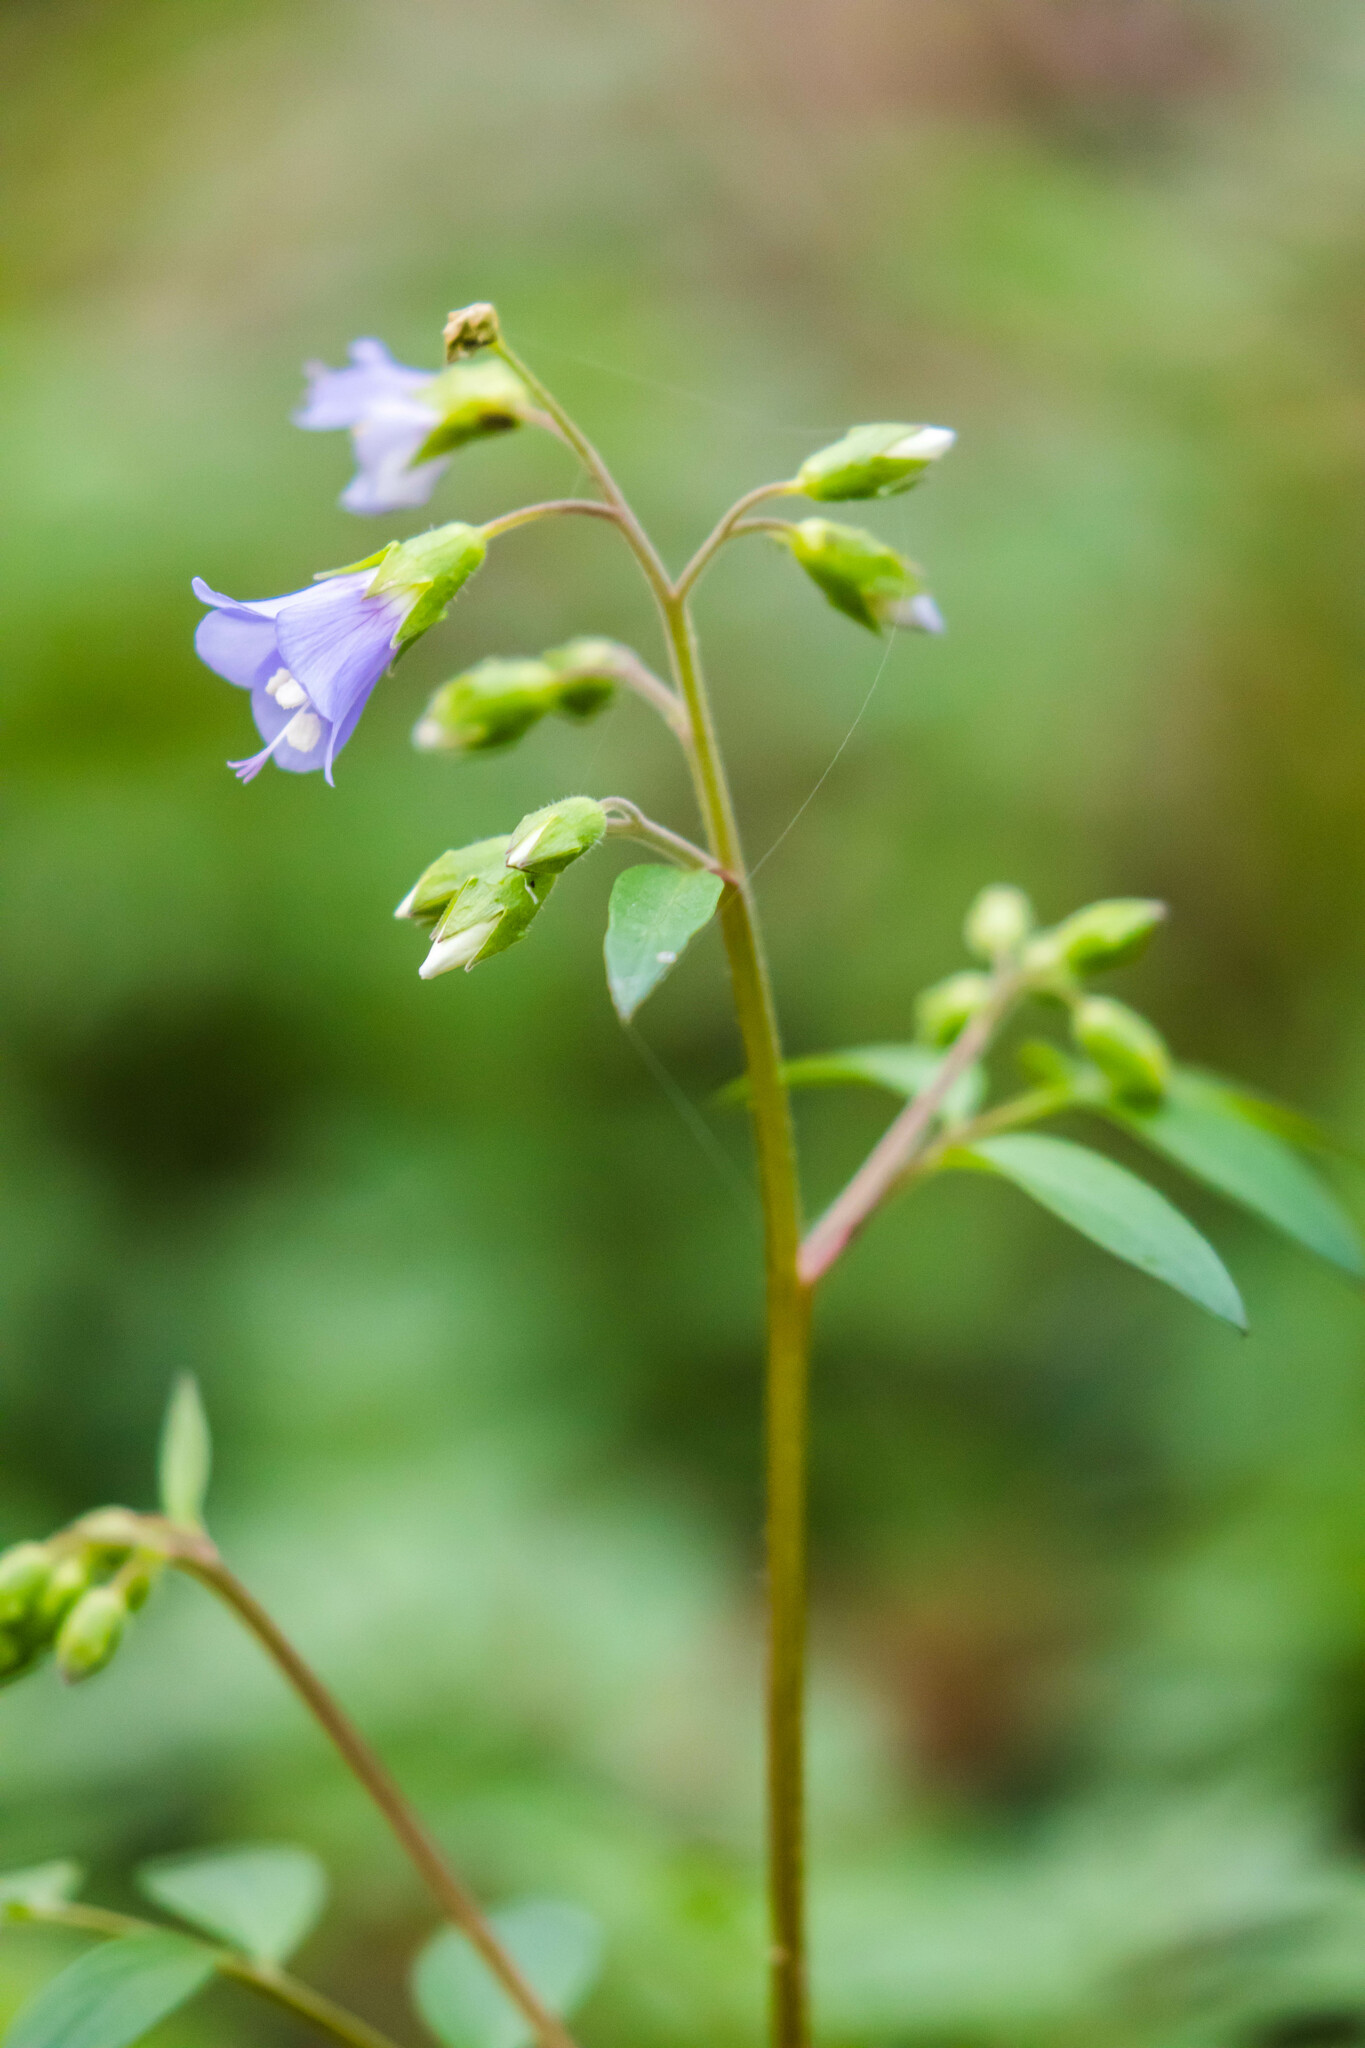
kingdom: Plantae
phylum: Tracheophyta
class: Magnoliopsida
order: Ericales
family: Polemoniaceae
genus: Polemonium
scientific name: Polemonium reptans
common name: Creeping jacob's-ladder
